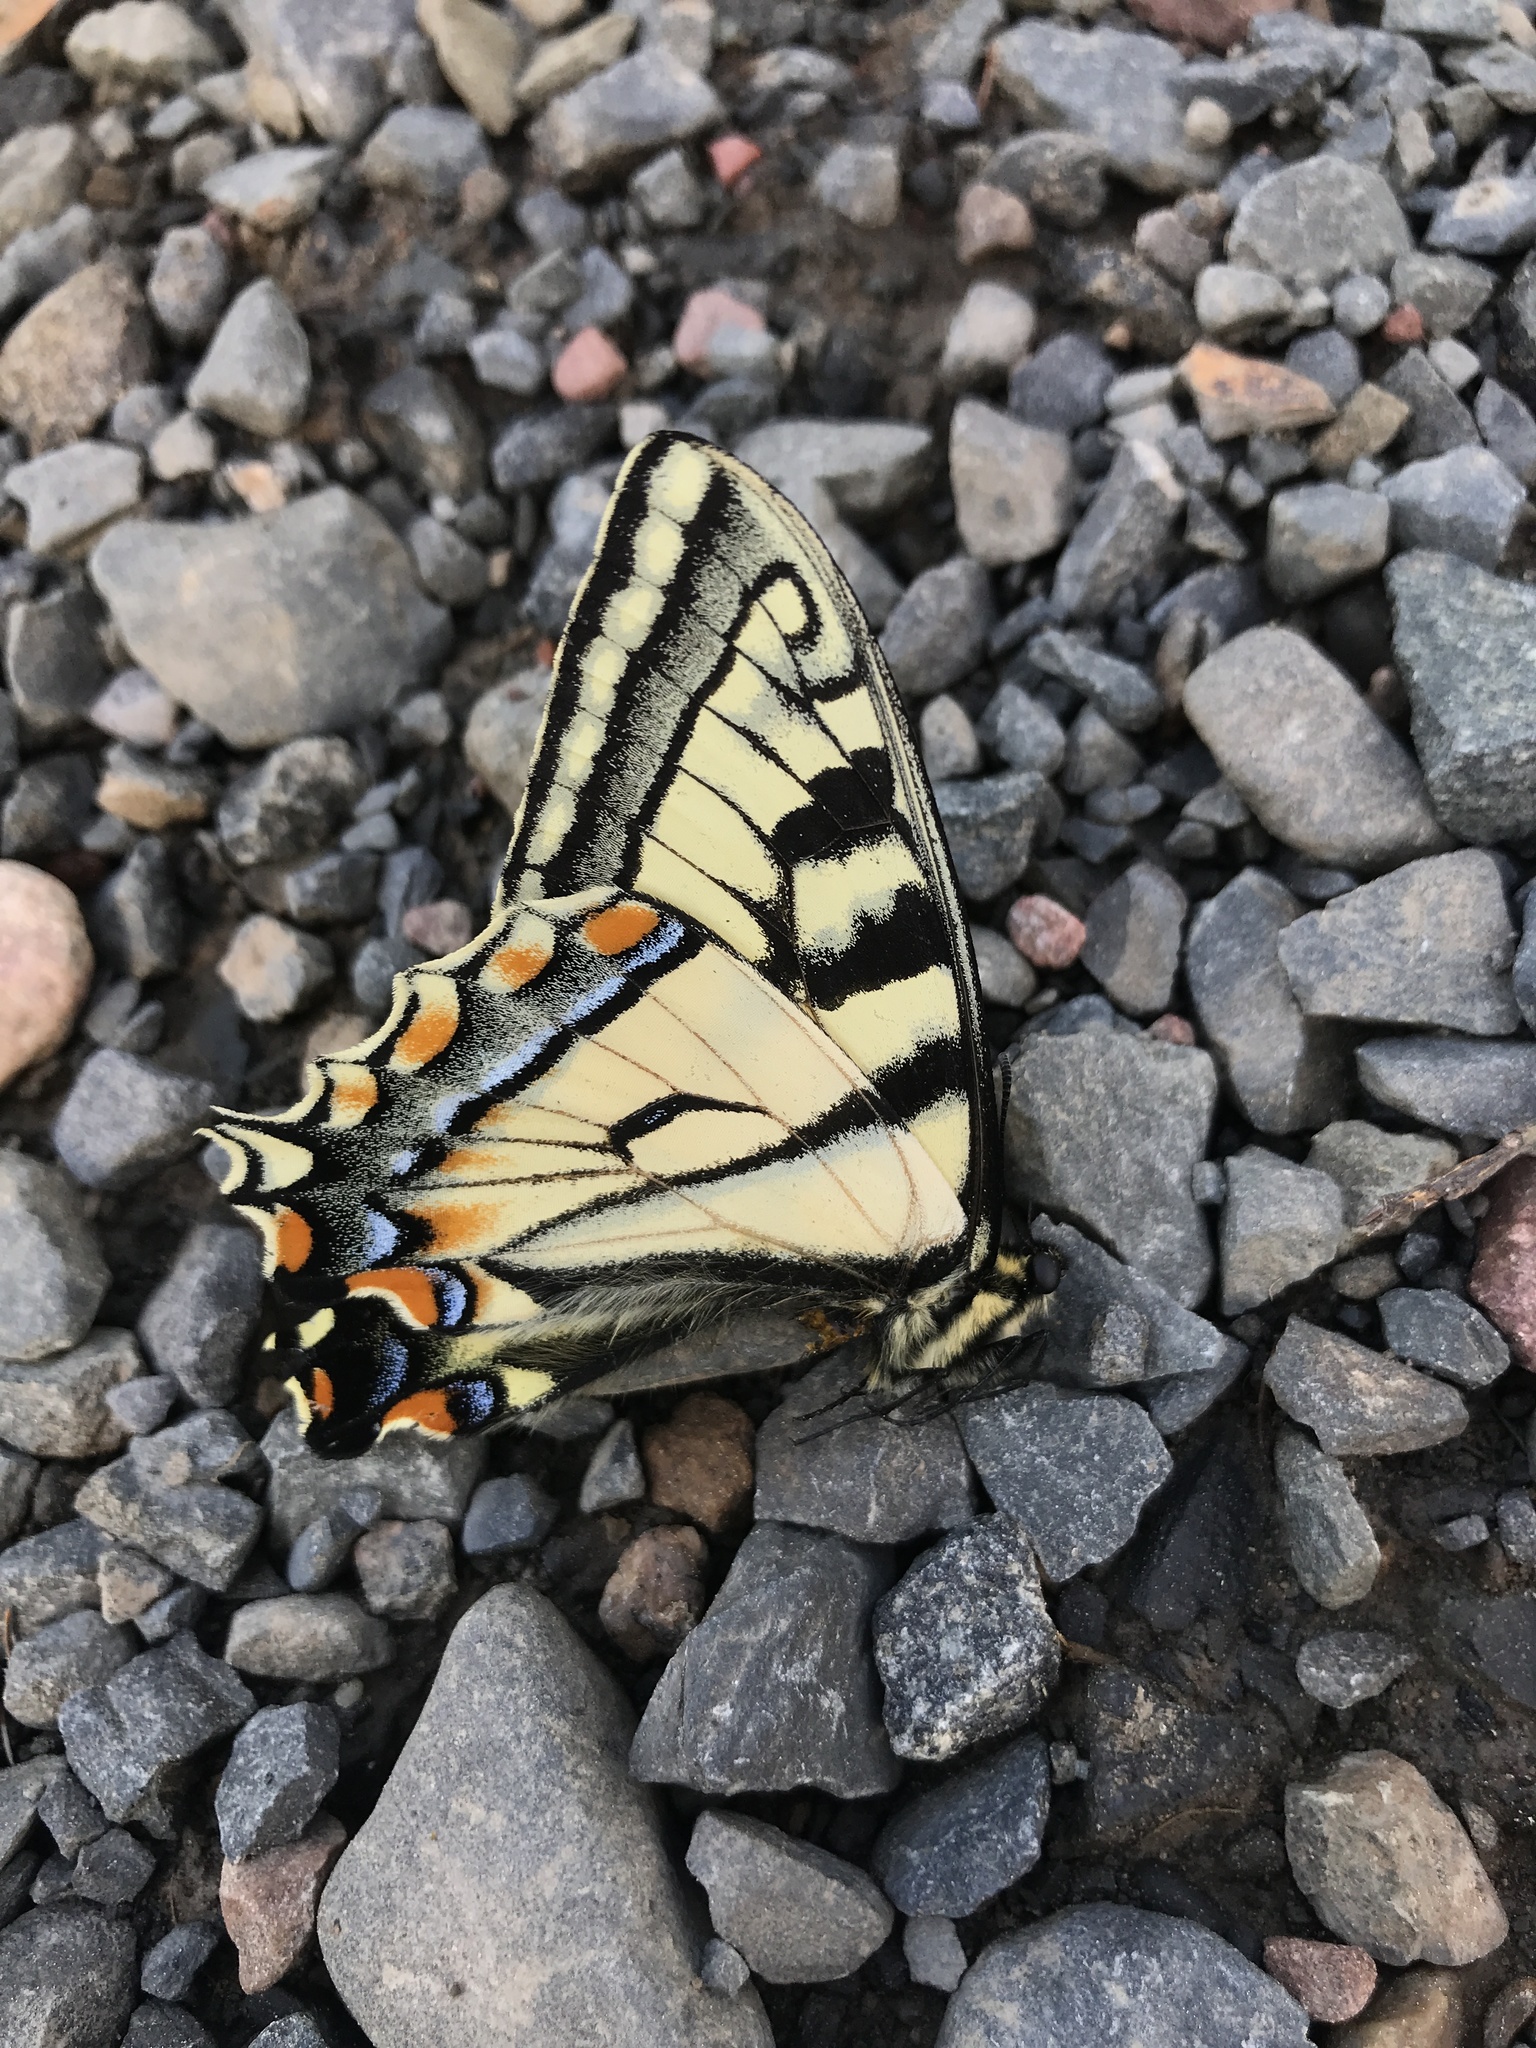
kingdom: Animalia
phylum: Arthropoda
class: Insecta
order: Lepidoptera
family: Papilionidae
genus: Papilio
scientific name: Papilio canadensis
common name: Canadian tiger swallowtail
